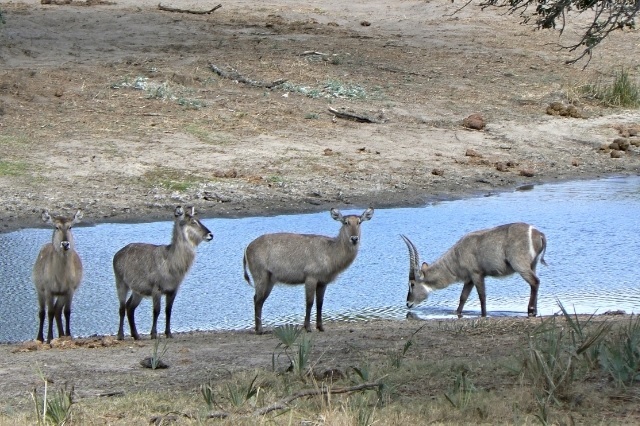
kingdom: Animalia
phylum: Chordata
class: Mammalia
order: Artiodactyla
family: Bovidae
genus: Kobus
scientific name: Kobus ellipsiprymnus
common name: Waterbuck
